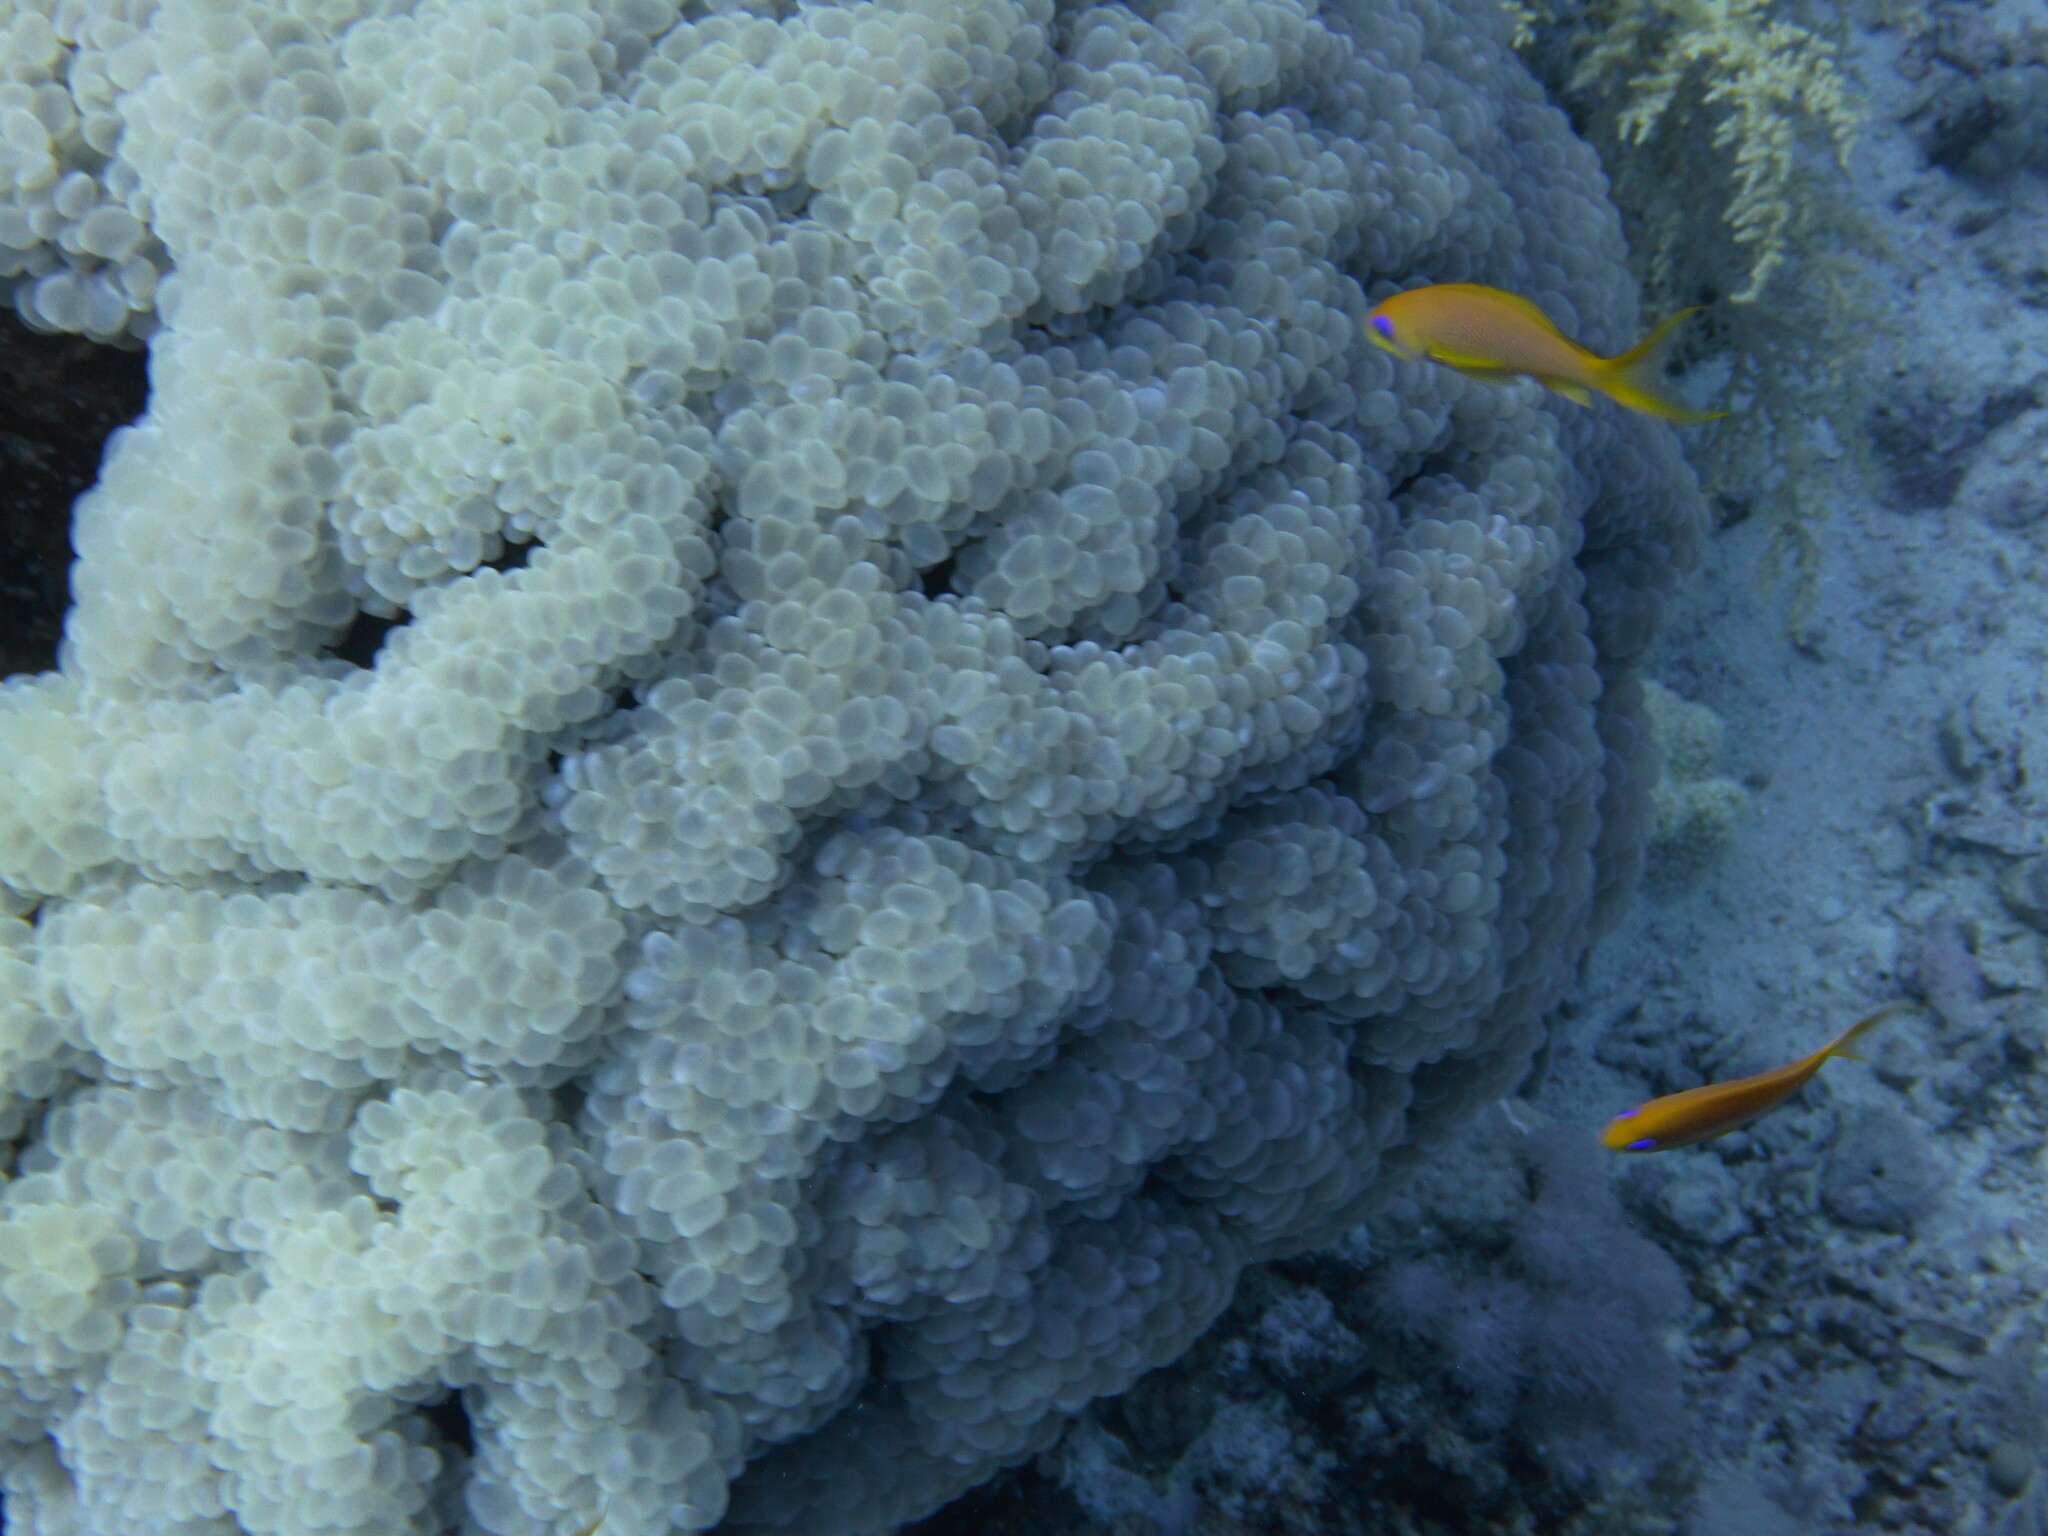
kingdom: Animalia
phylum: Chordata
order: Perciformes
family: Serranidae
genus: Pseudanthias
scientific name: Pseudanthias squamipinnis
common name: Scalefin anthias
